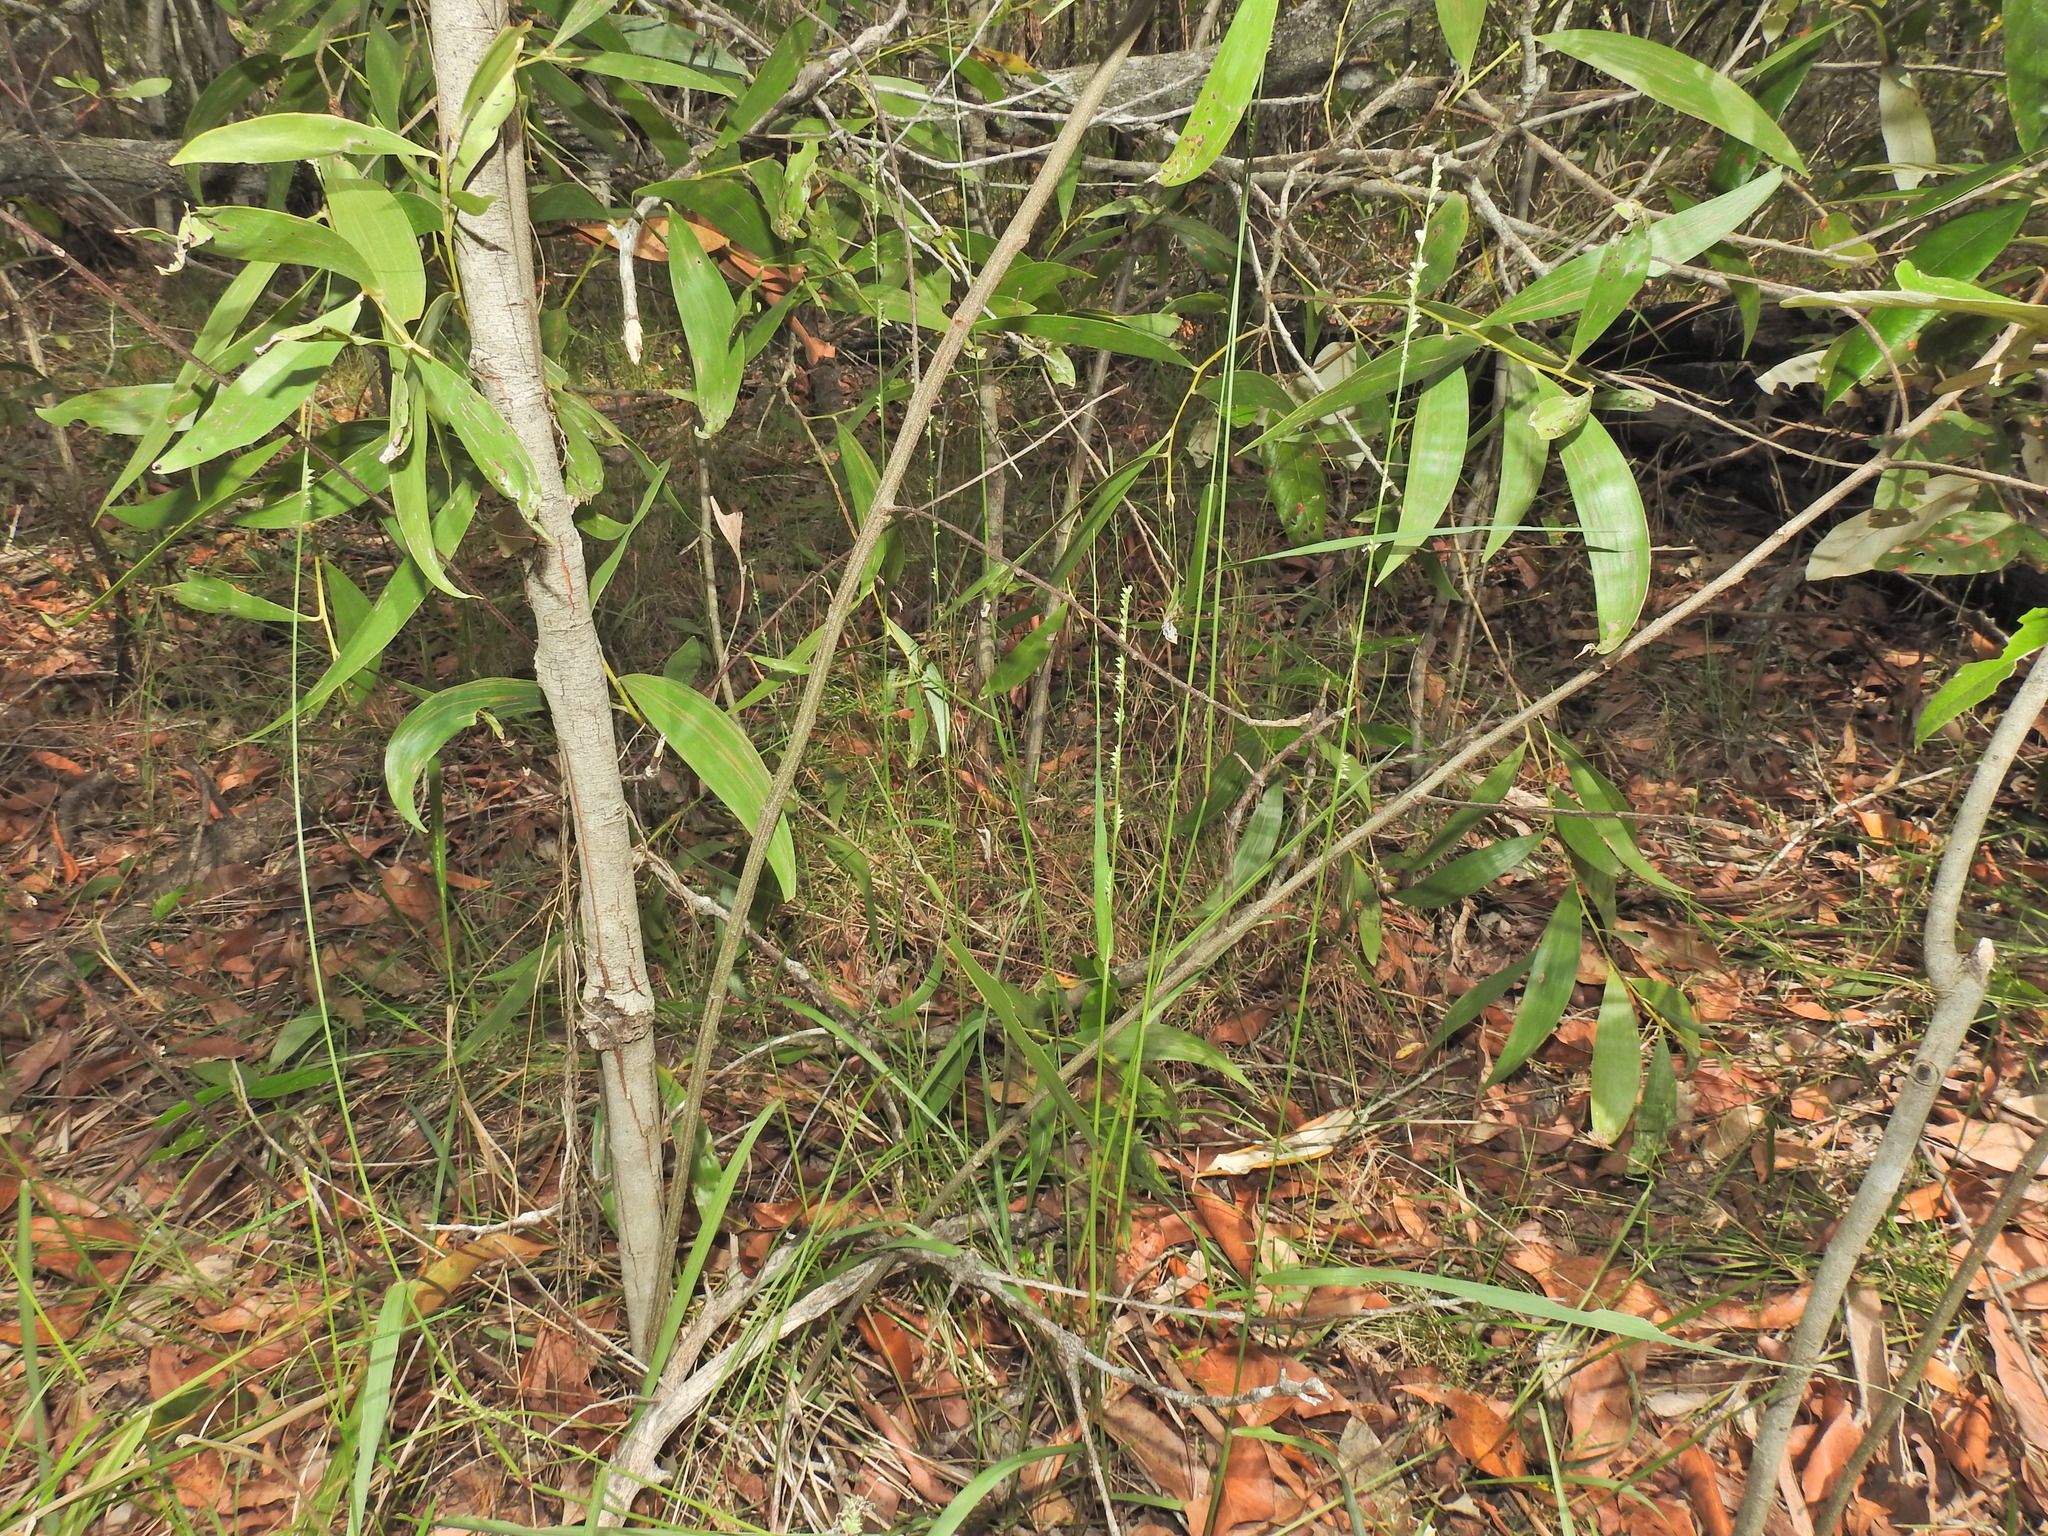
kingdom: Plantae
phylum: Tracheophyta
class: Liliopsida
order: Poales
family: Poaceae
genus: Setaria
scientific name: Setaria gausa
